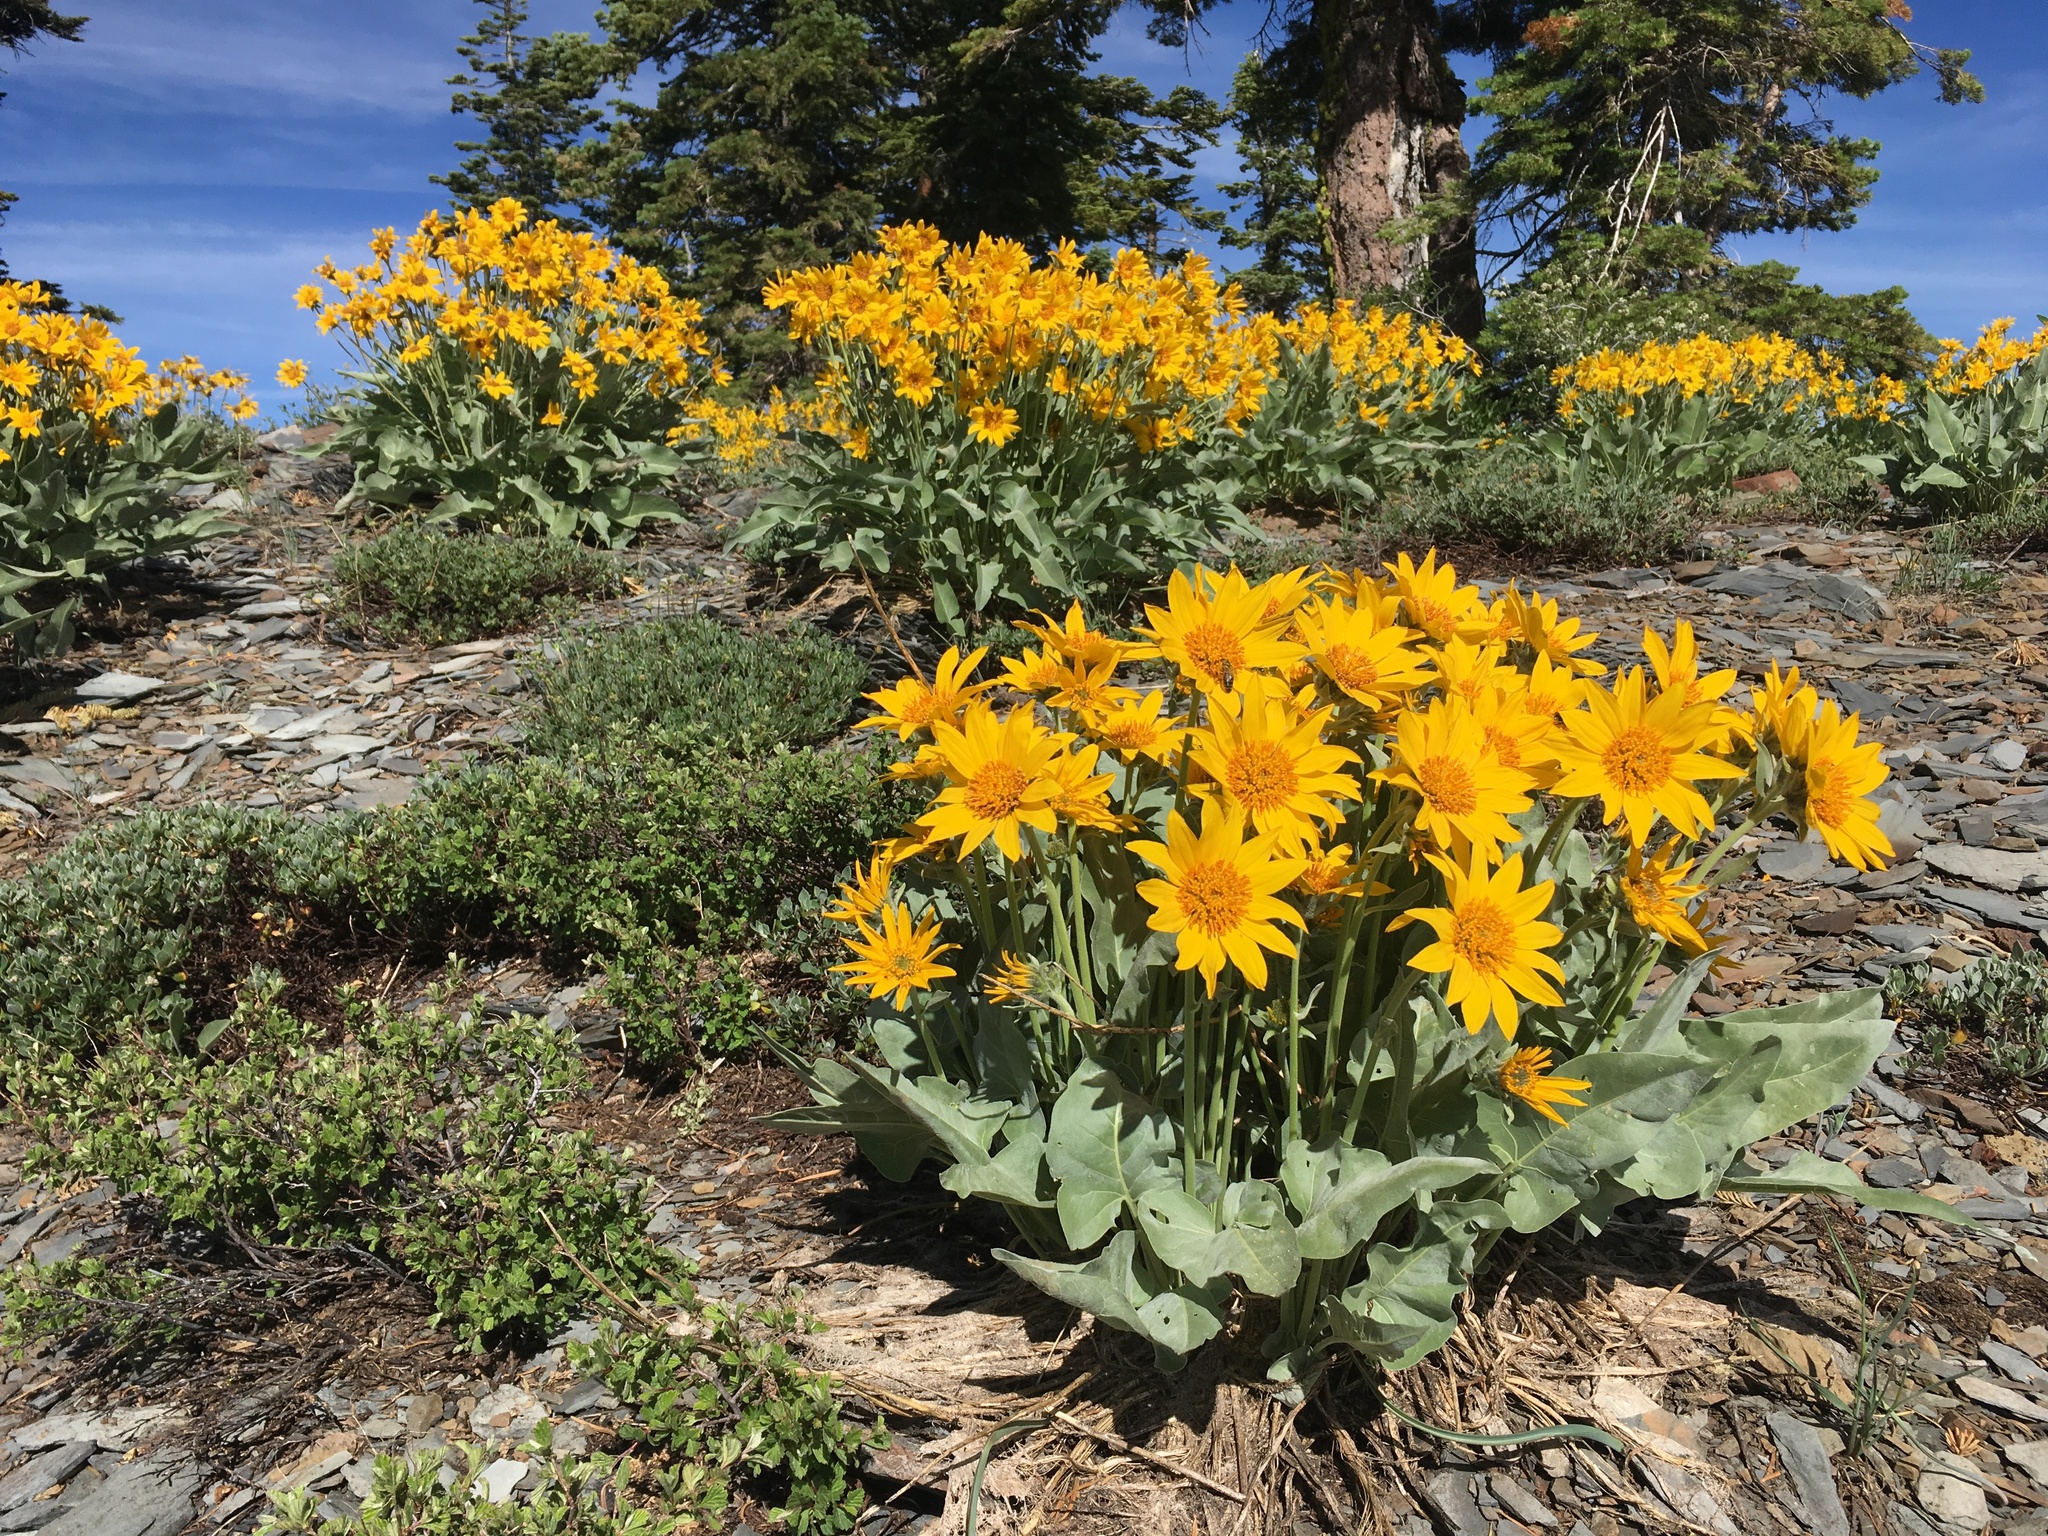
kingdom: Plantae
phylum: Tracheophyta
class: Magnoliopsida
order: Asterales
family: Asteraceae
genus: Wyethia
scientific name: Wyethia sagittata
